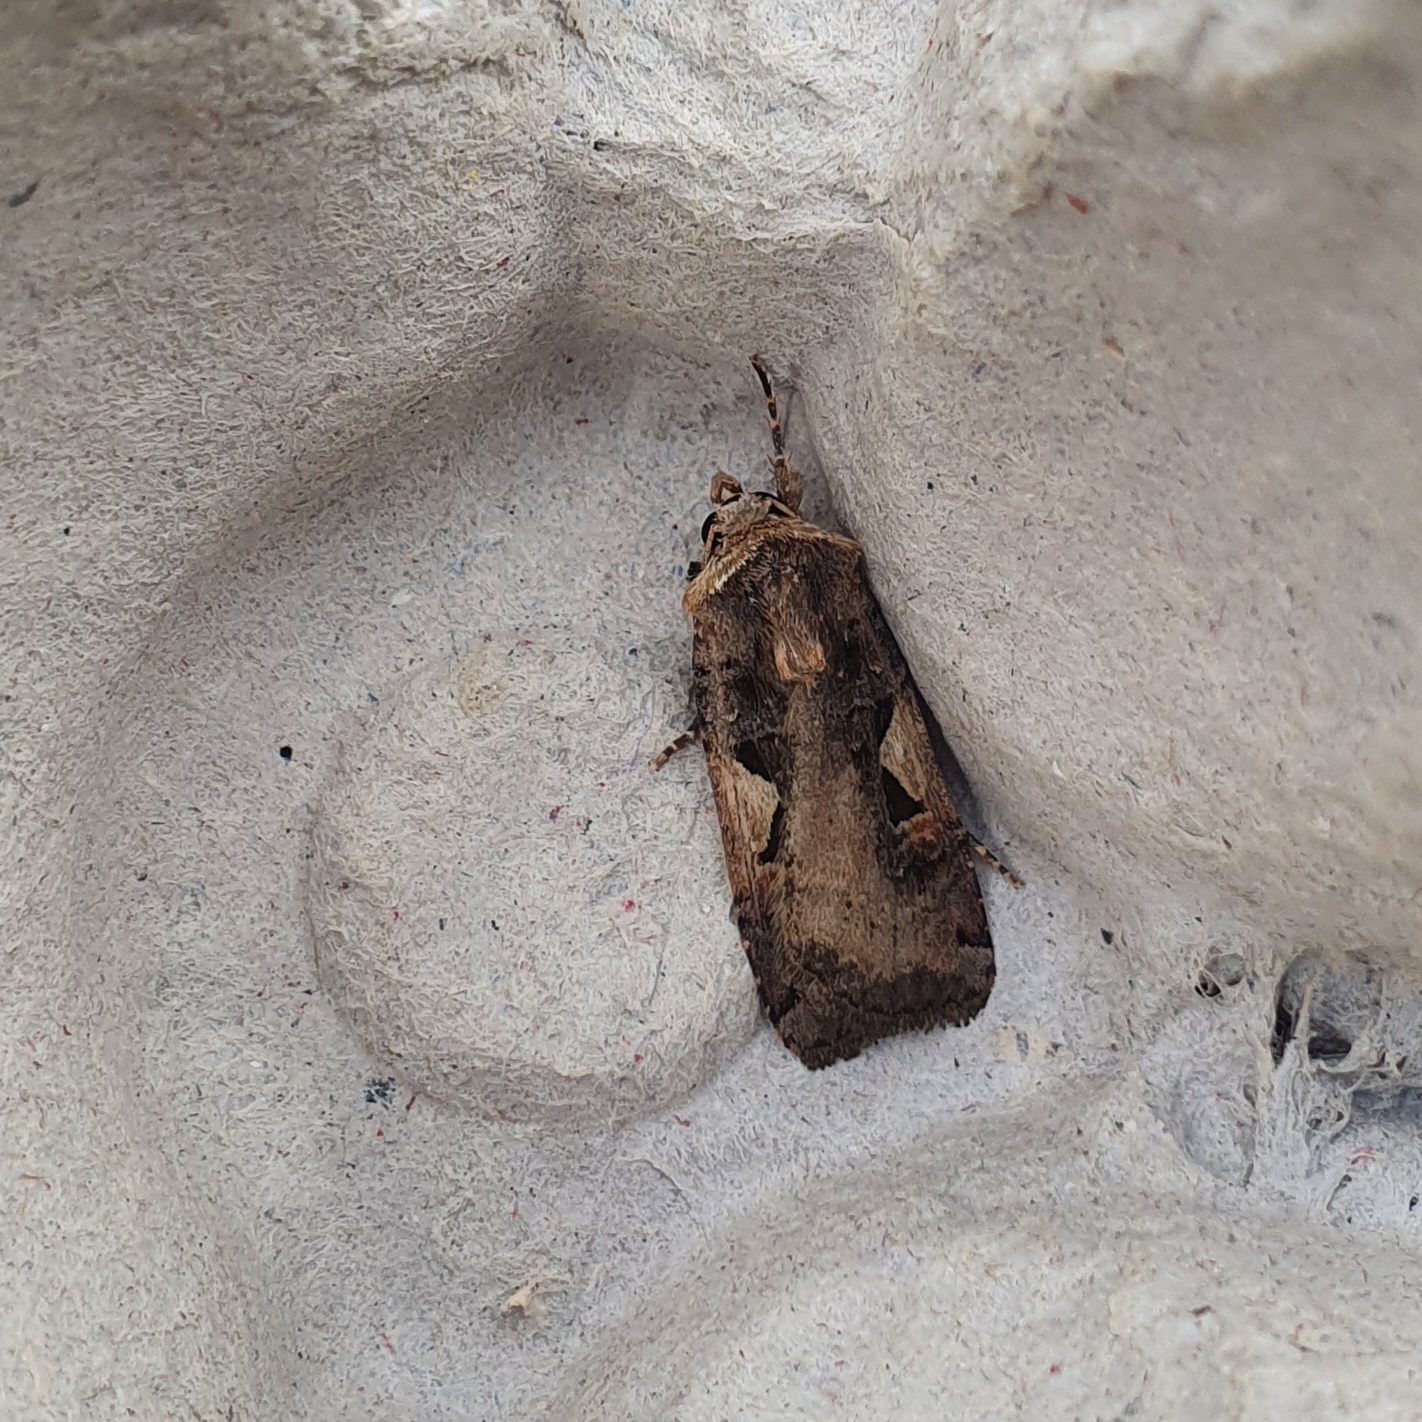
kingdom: Animalia
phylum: Arthropoda
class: Insecta
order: Lepidoptera
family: Noctuidae
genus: Xestia
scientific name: Xestia c-nigrum
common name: Setaceous hebrew character
